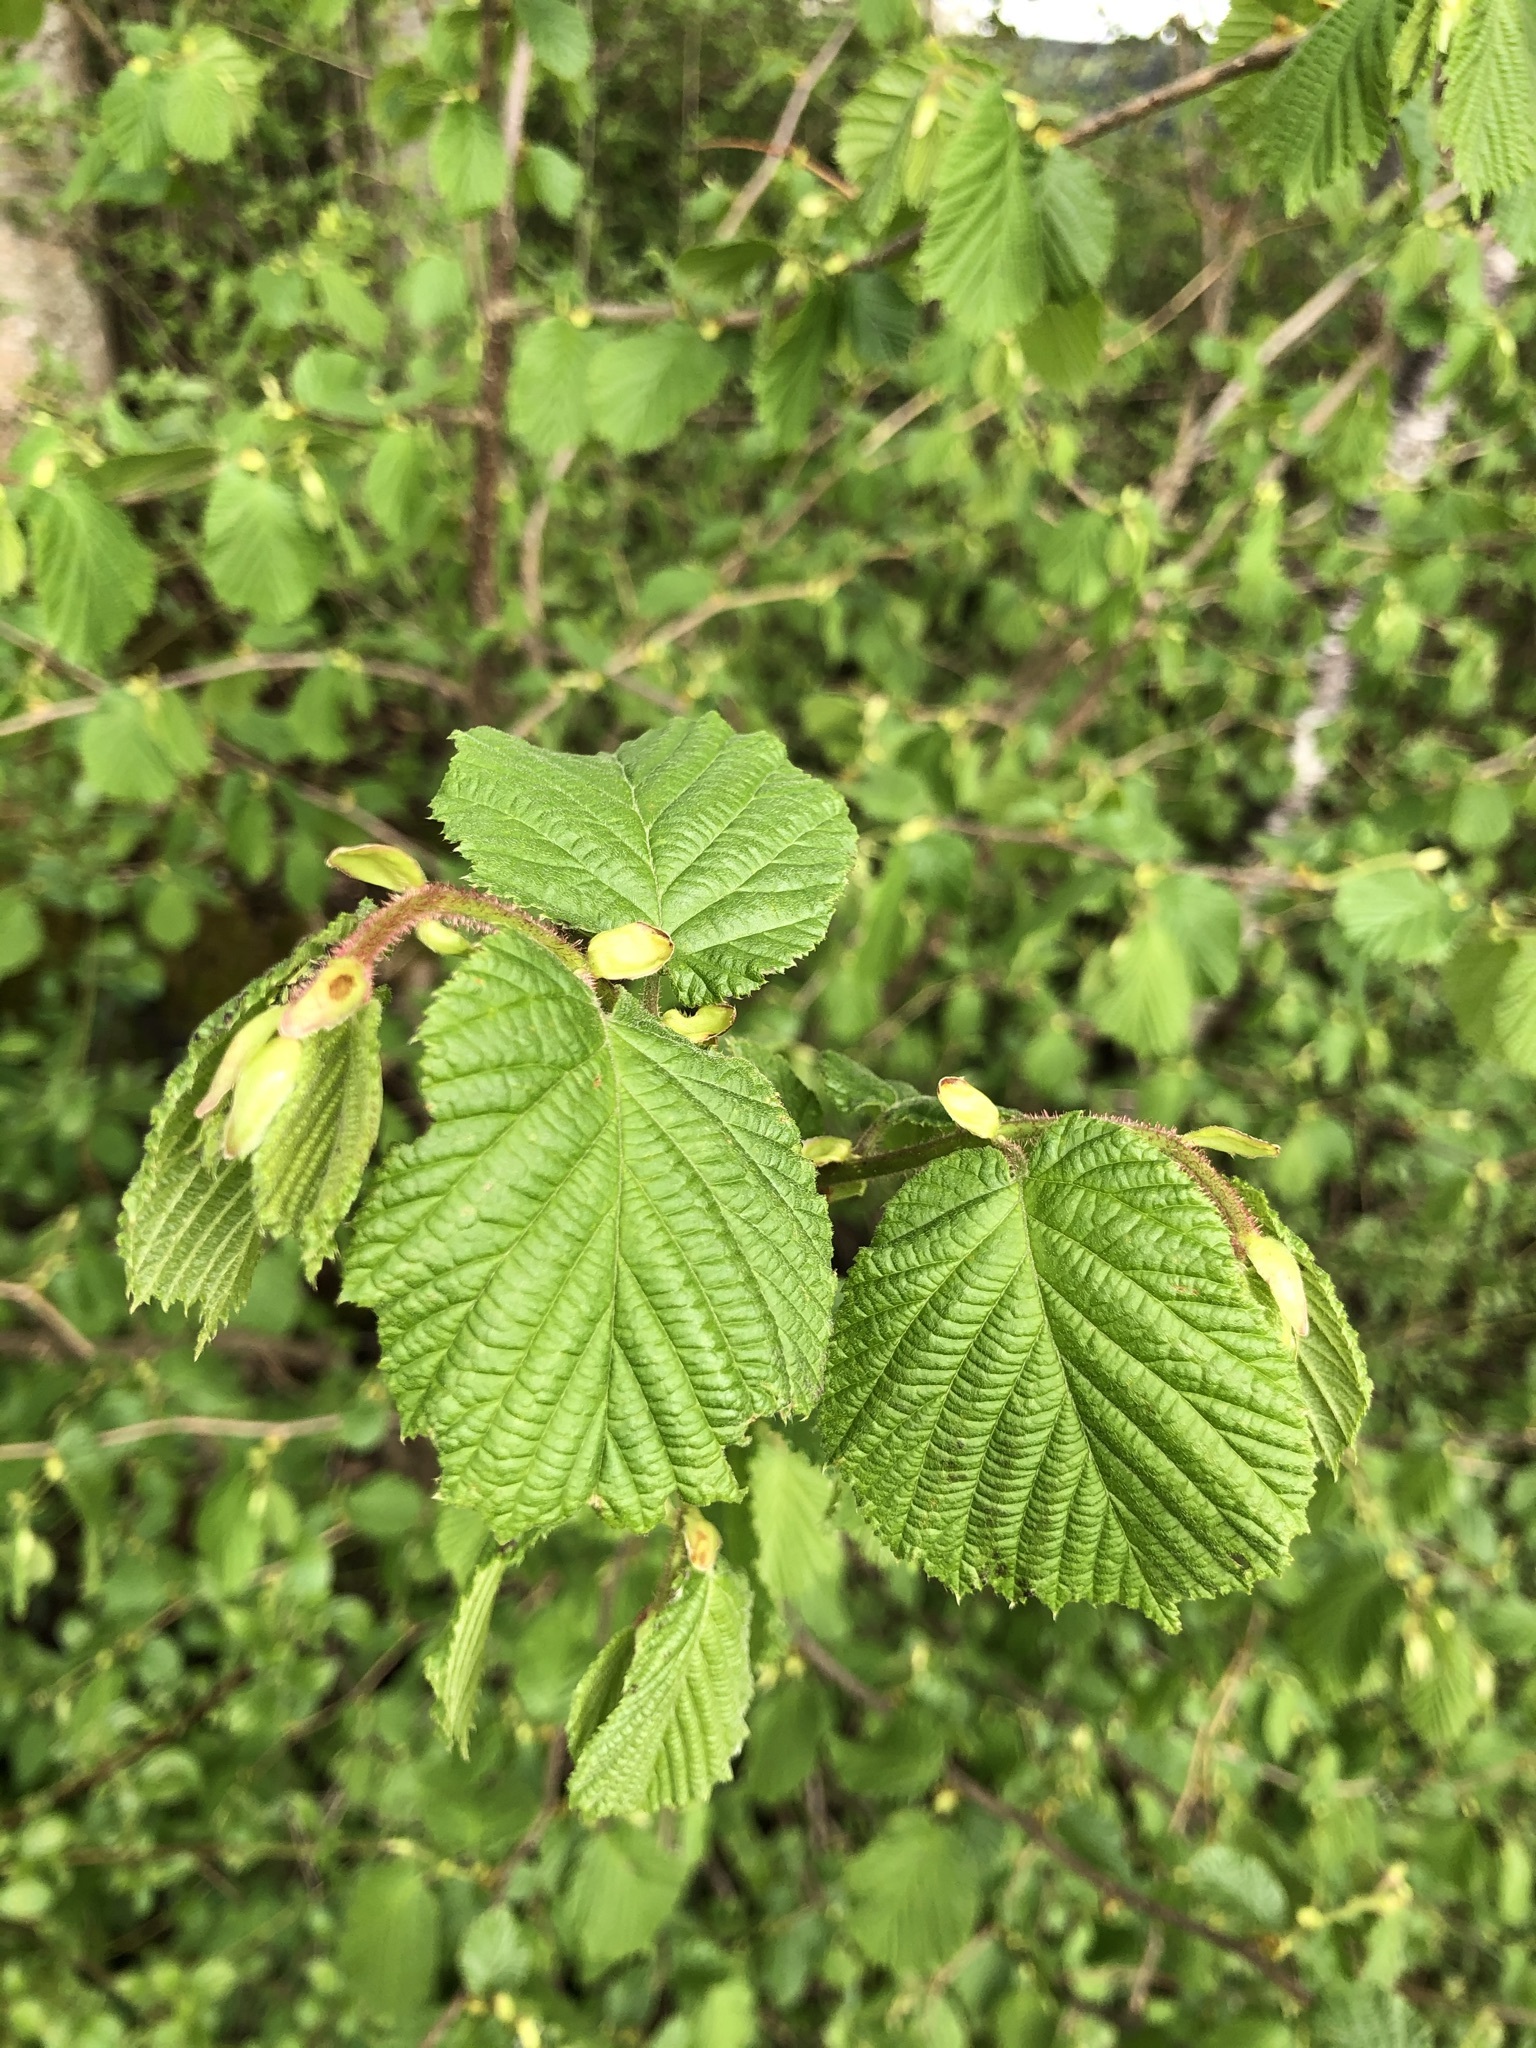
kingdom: Plantae
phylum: Tracheophyta
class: Magnoliopsida
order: Fagales
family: Betulaceae
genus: Corylus
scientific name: Corylus avellana
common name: European hazel
